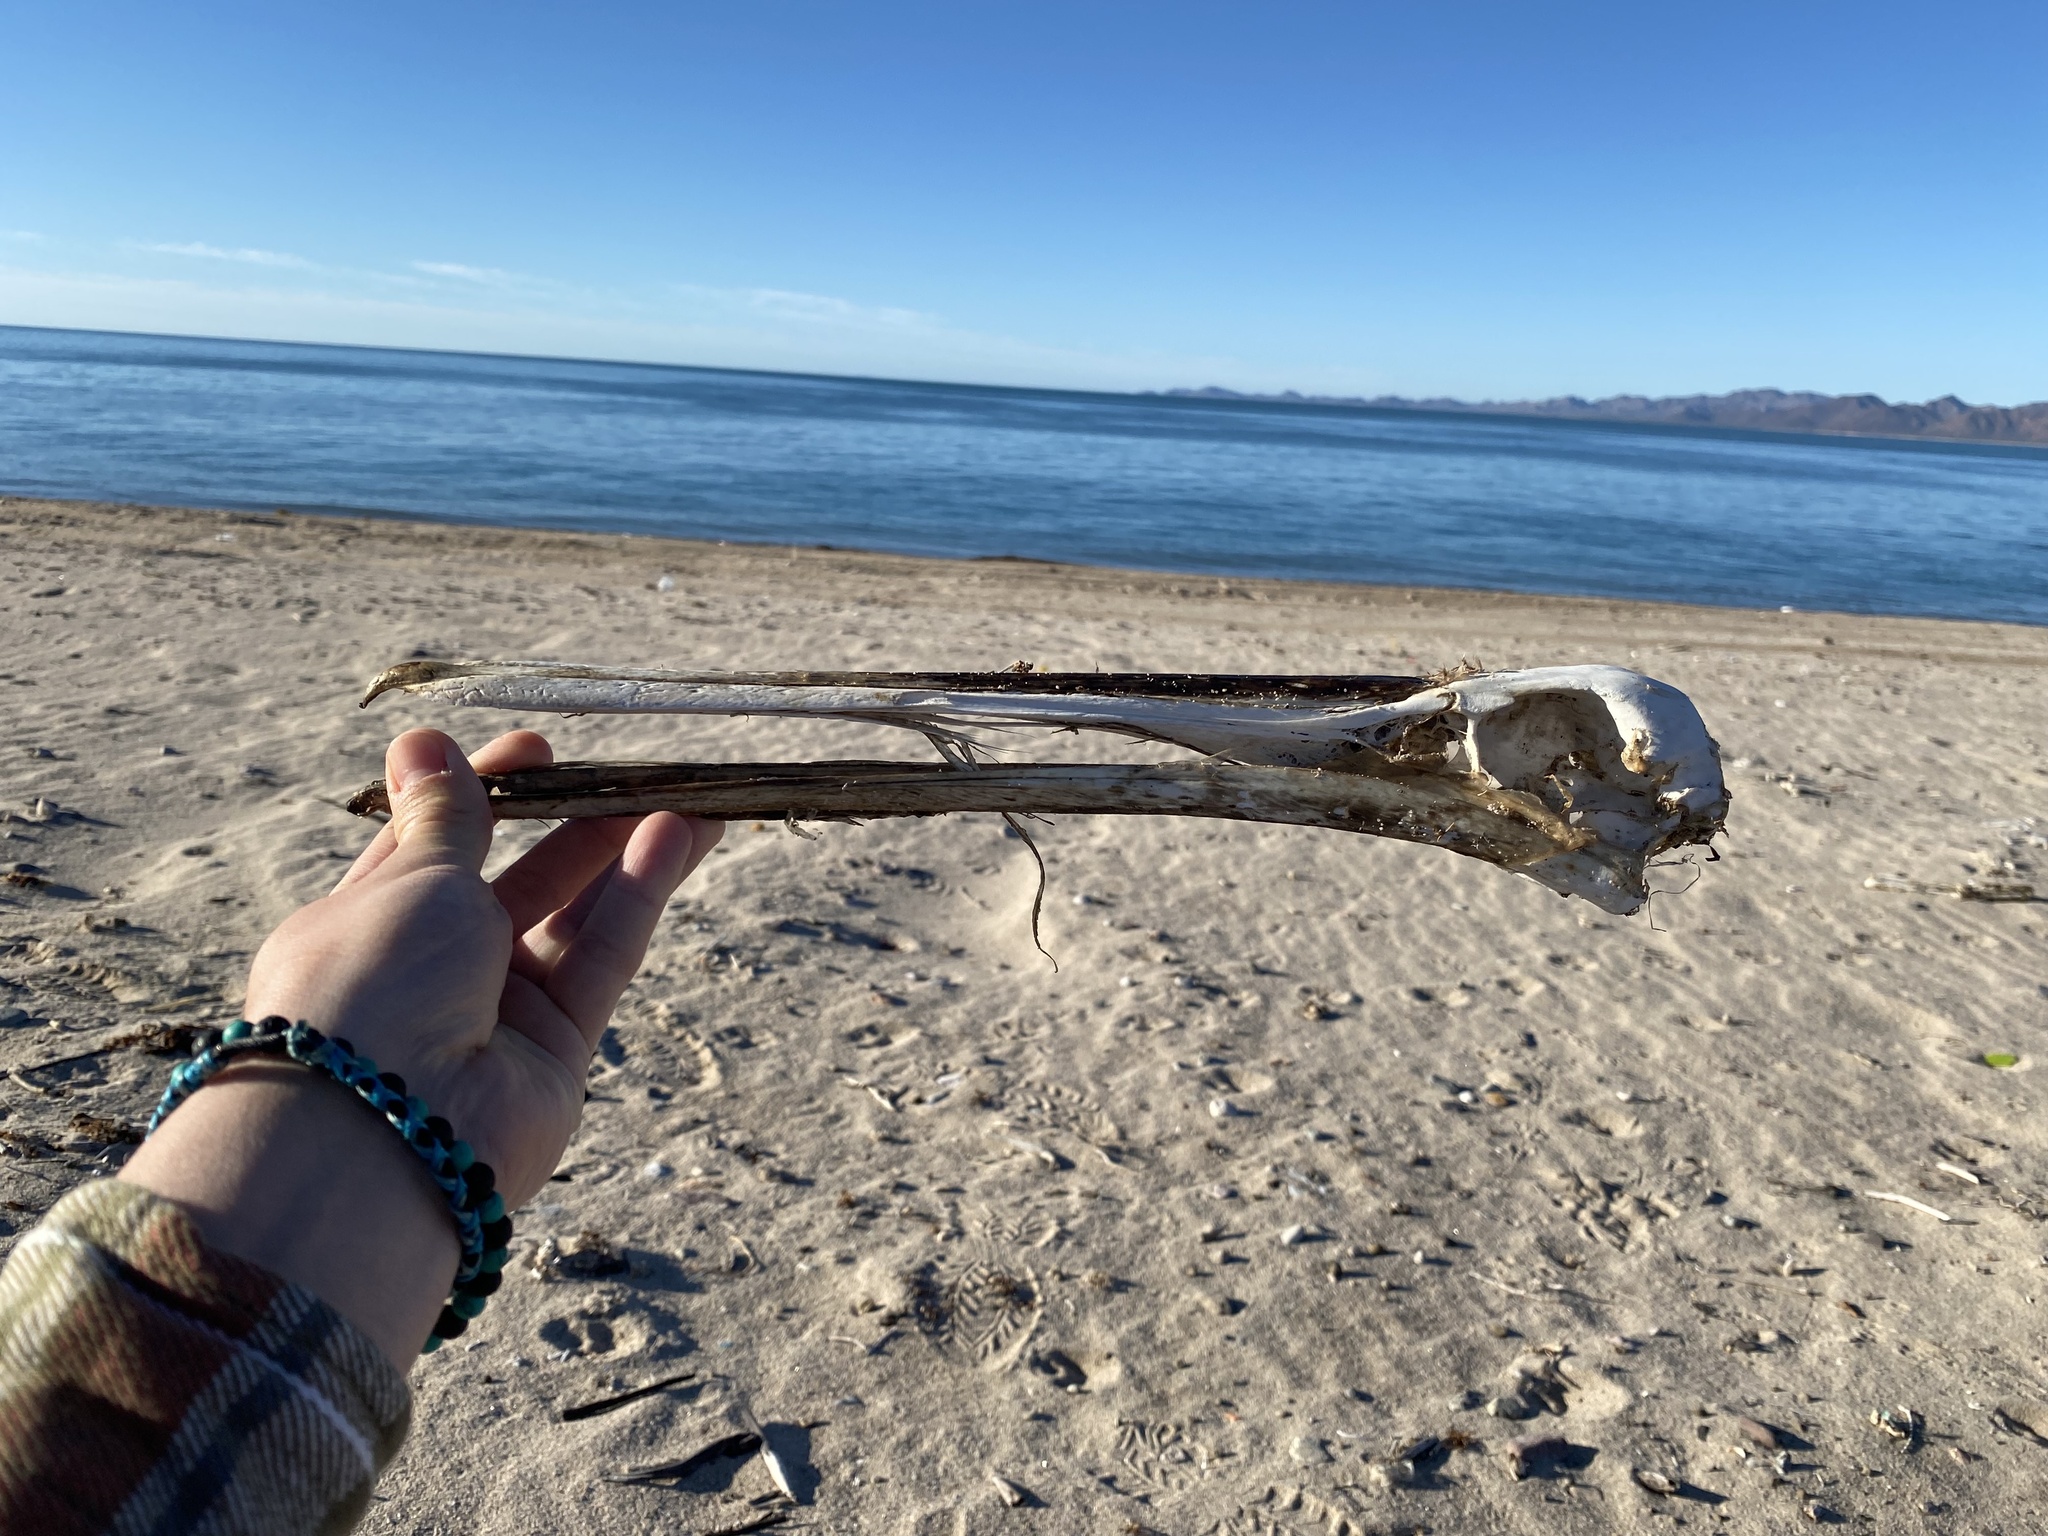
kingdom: Animalia
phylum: Chordata
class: Aves
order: Pelecaniformes
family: Pelecanidae
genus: Pelecanus
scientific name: Pelecanus occidentalis
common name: Brown pelican
